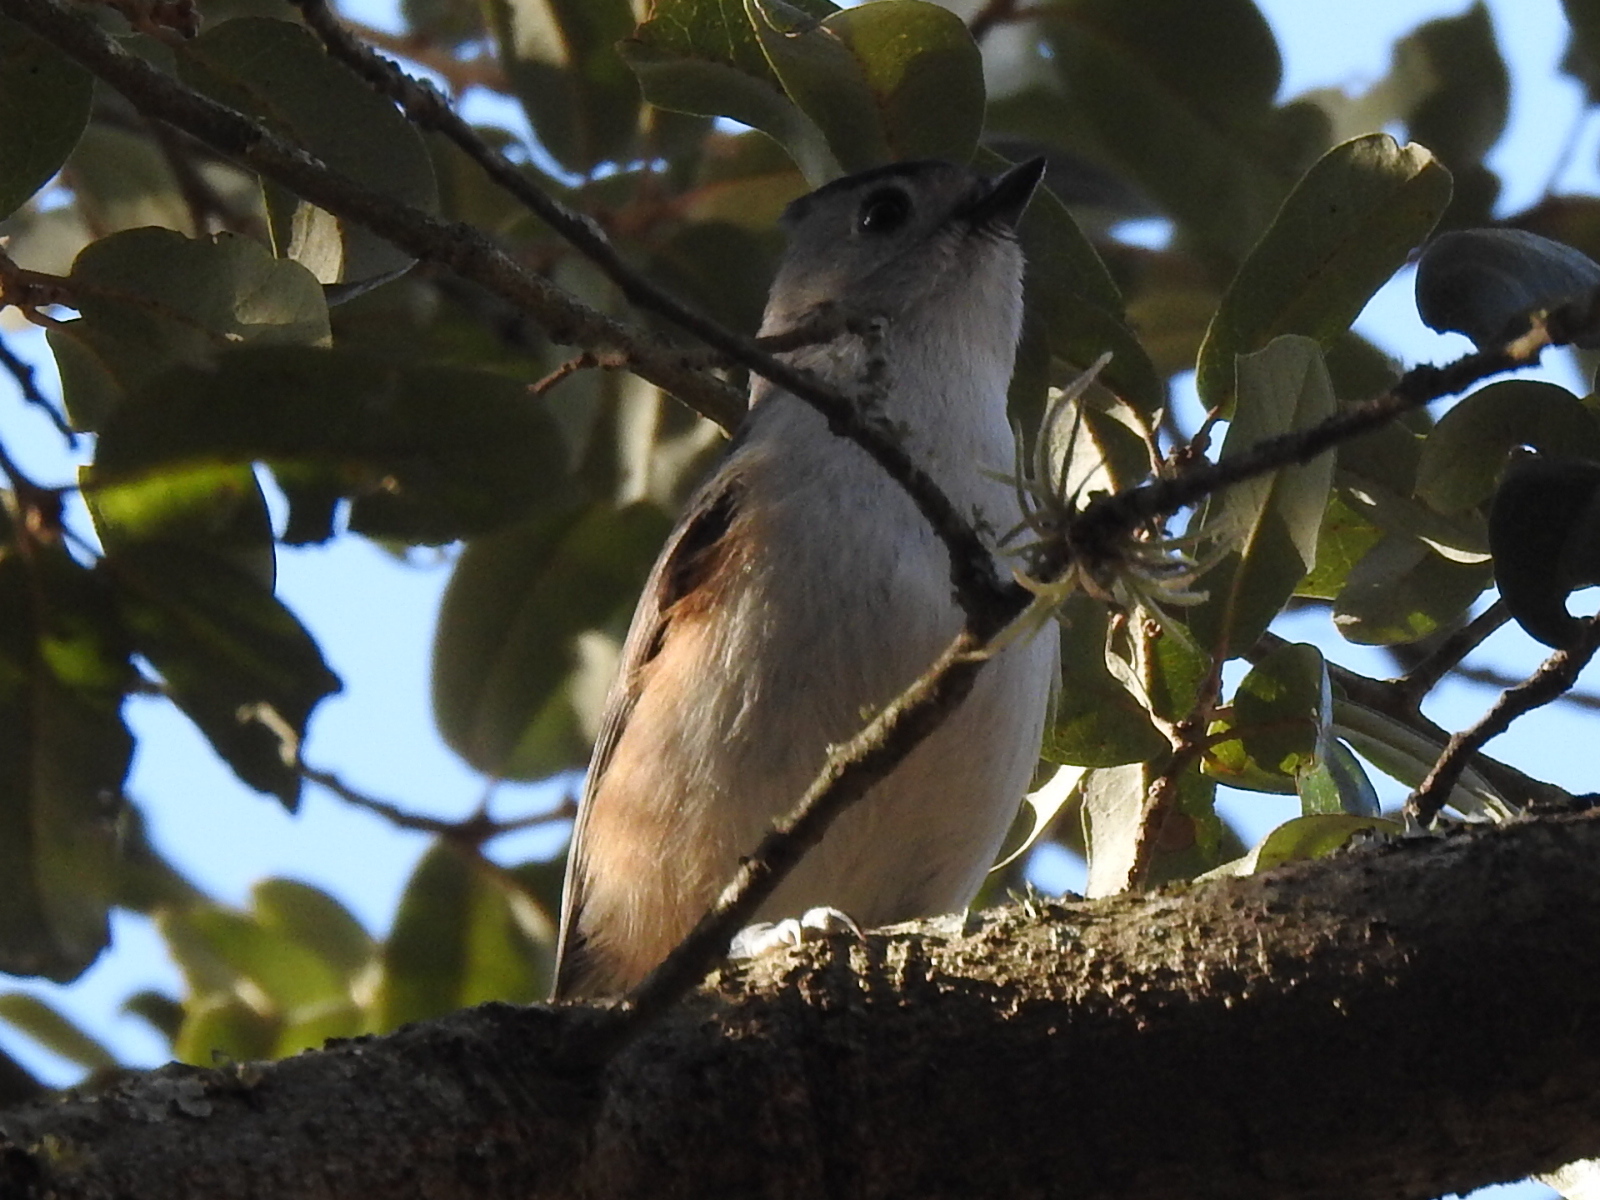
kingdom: Animalia
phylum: Chordata
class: Aves
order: Passeriformes
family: Paridae
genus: Baeolophus
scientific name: Baeolophus atricristatus
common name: Black-crested titmouse
